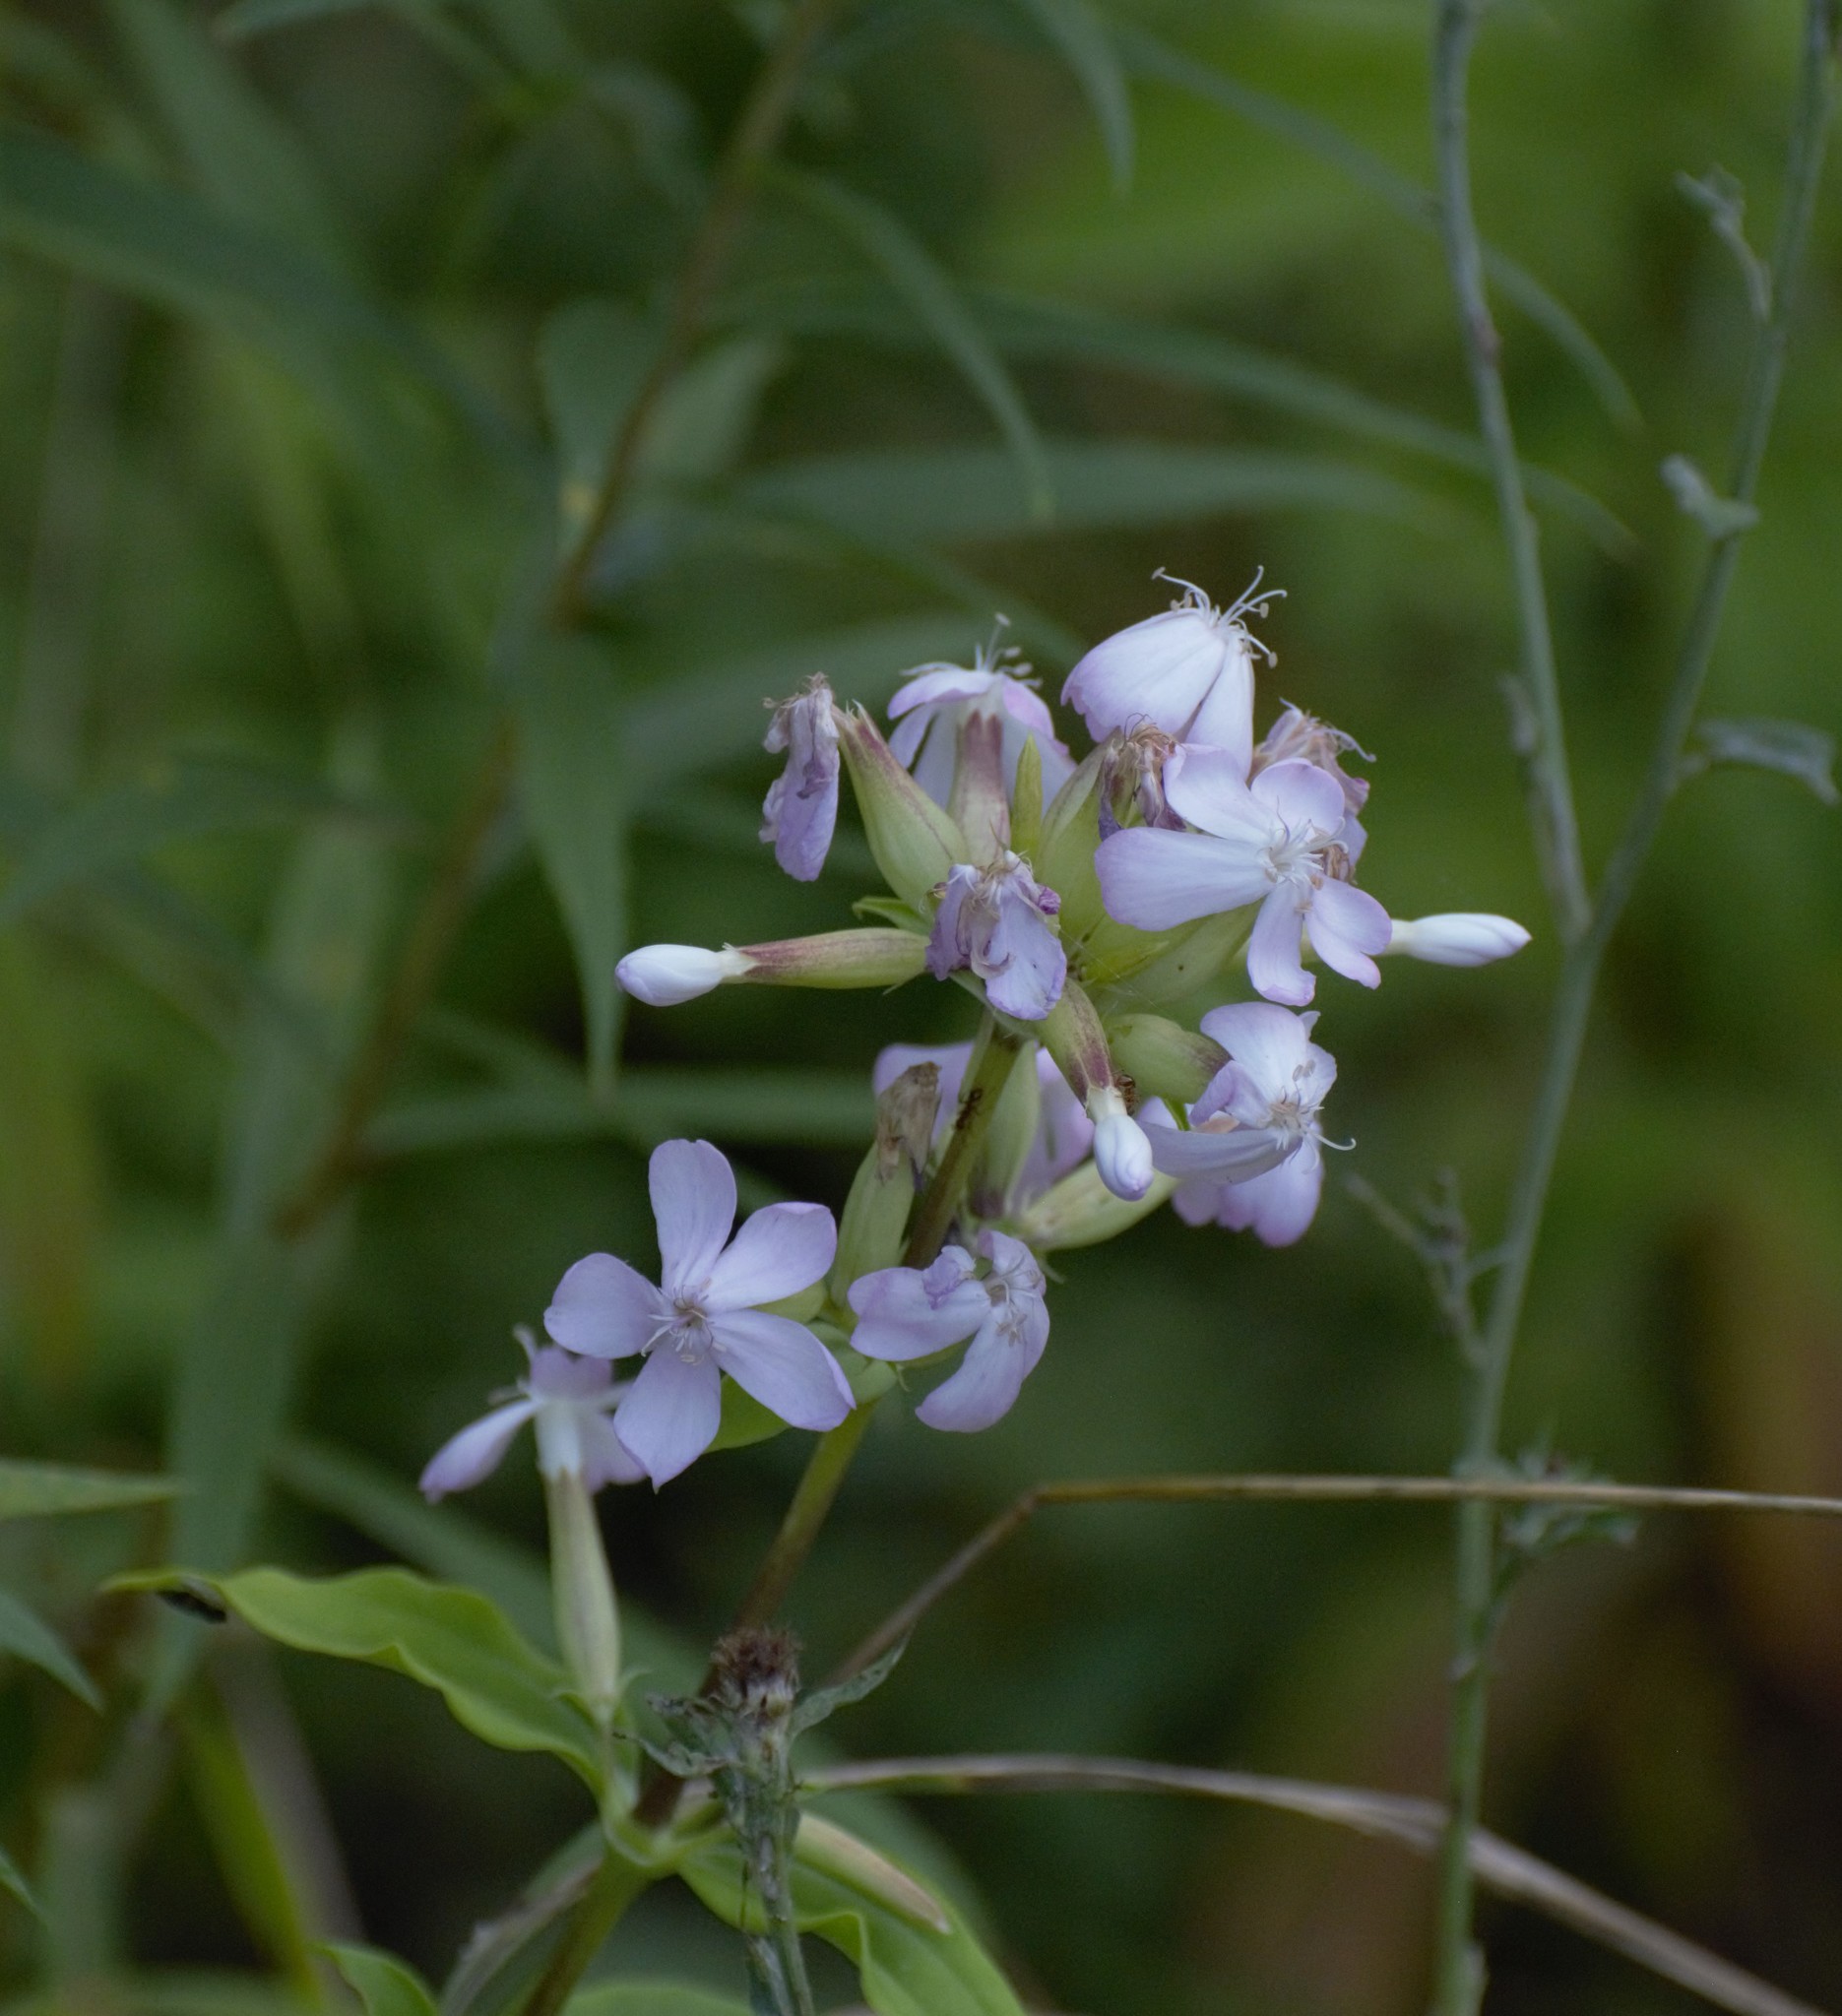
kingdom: Plantae
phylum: Tracheophyta
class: Magnoliopsida
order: Caryophyllales
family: Caryophyllaceae
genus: Saponaria
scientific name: Saponaria officinalis
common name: Soapwort
